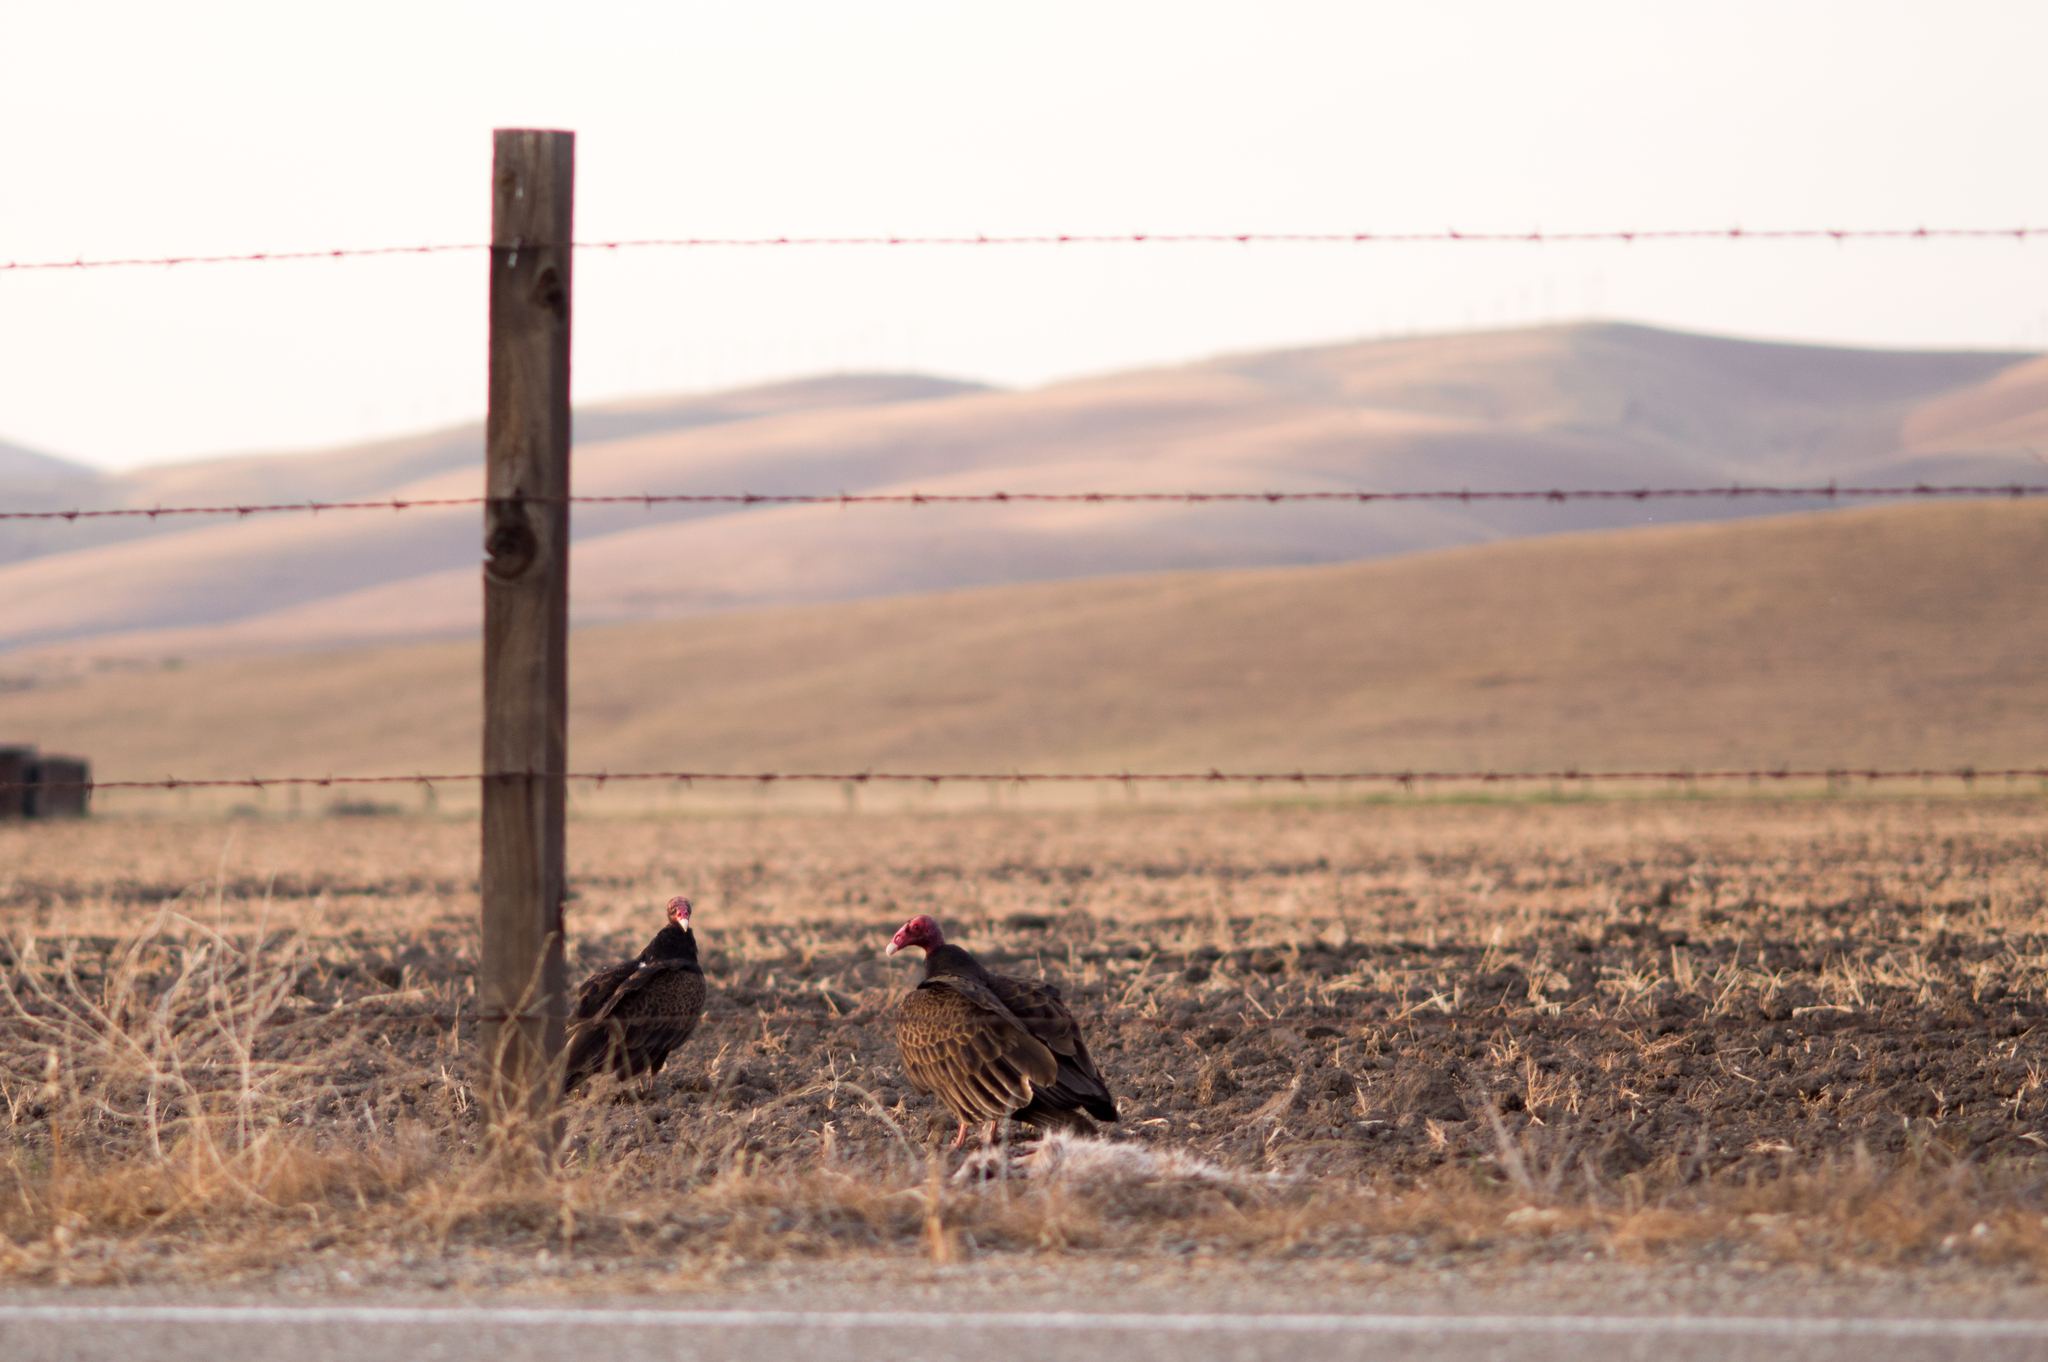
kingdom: Animalia
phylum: Chordata
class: Aves
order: Accipitriformes
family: Cathartidae
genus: Cathartes
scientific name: Cathartes aura
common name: Turkey vulture
